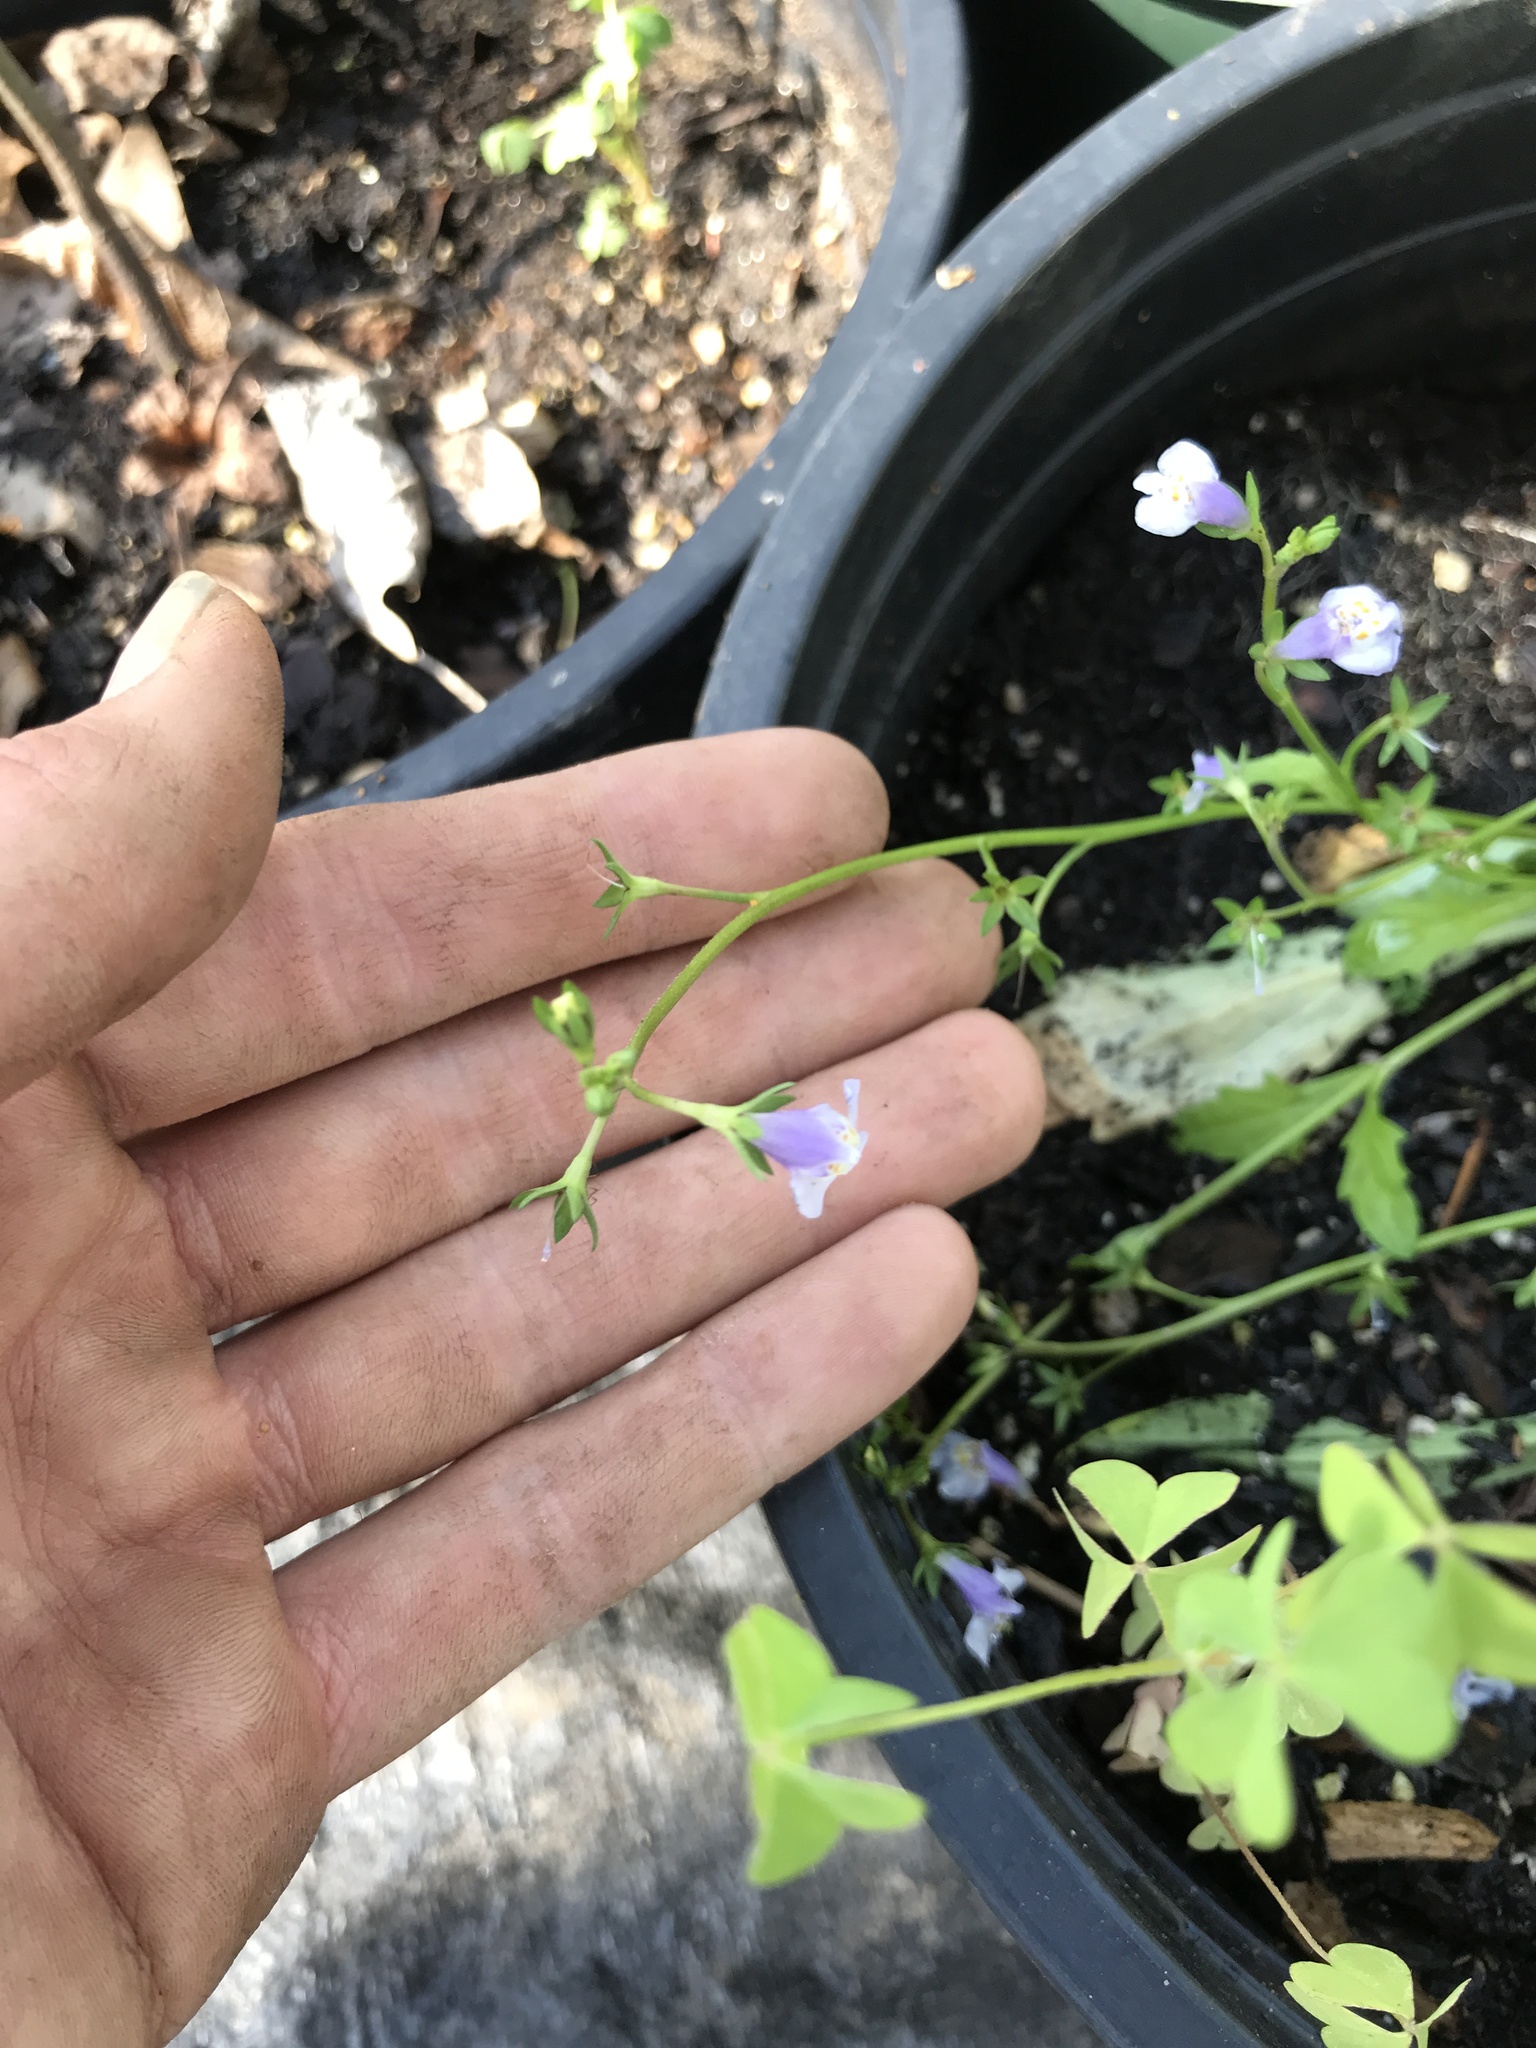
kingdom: Plantae
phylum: Tracheophyta
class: Magnoliopsida
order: Lamiales
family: Mazaceae
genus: Mazus
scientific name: Mazus pumilus
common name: Japanese mazus
